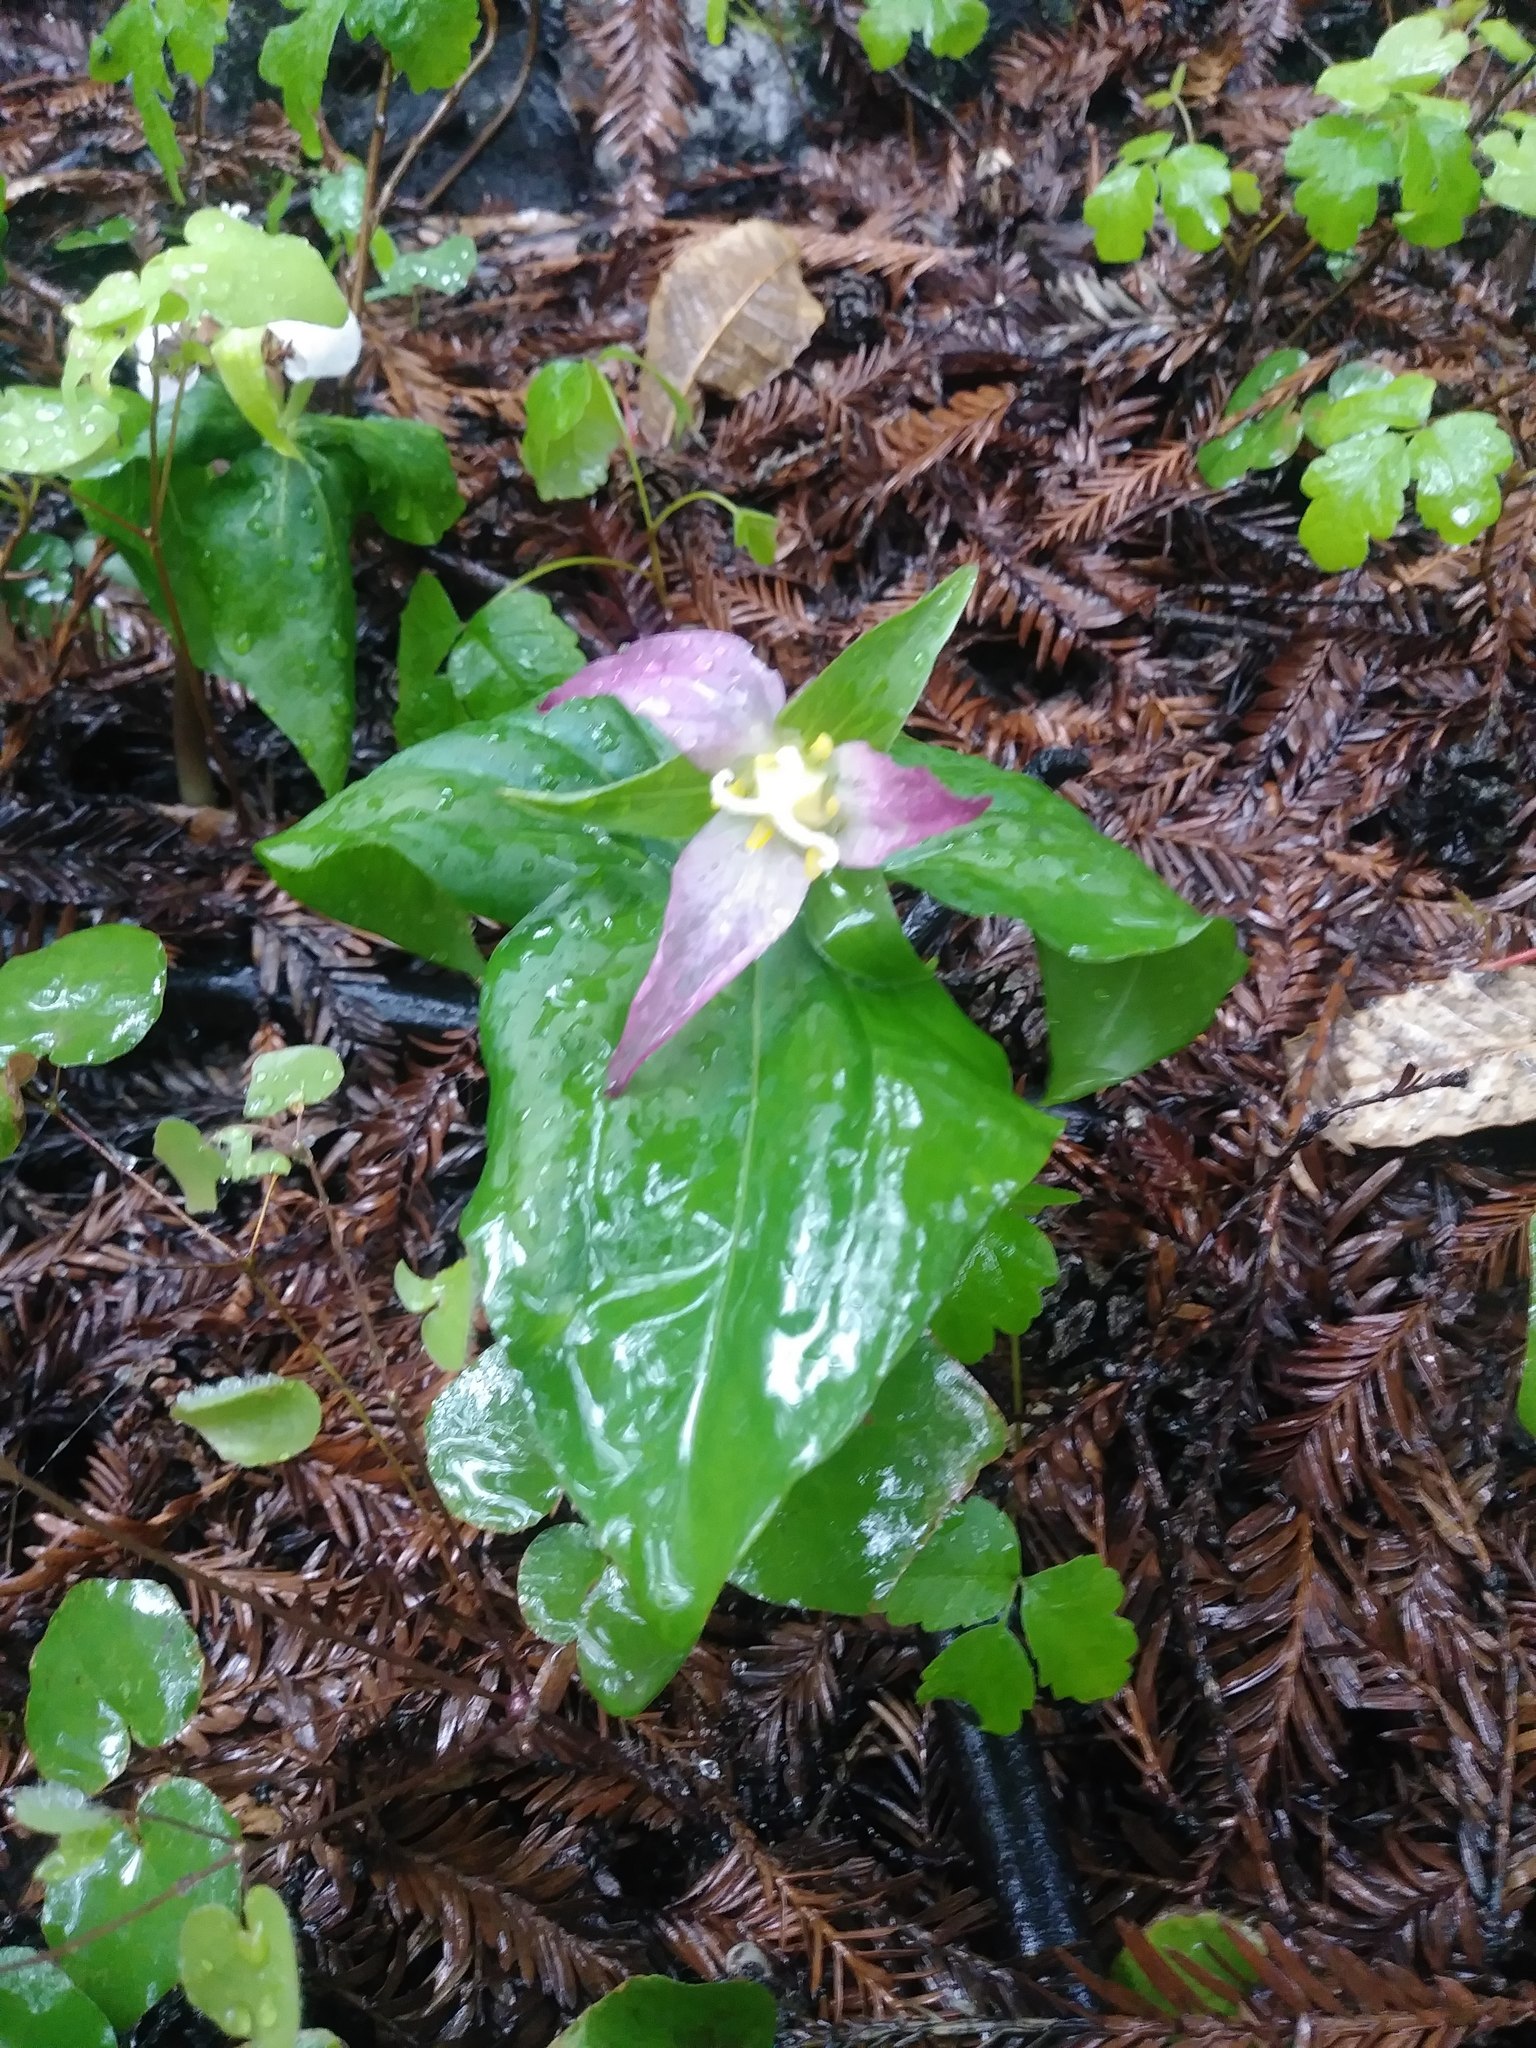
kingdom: Plantae
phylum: Tracheophyta
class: Liliopsida
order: Liliales
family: Melanthiaceae
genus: Trillium
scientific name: Trillium ovatum
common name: Pacific trillium
